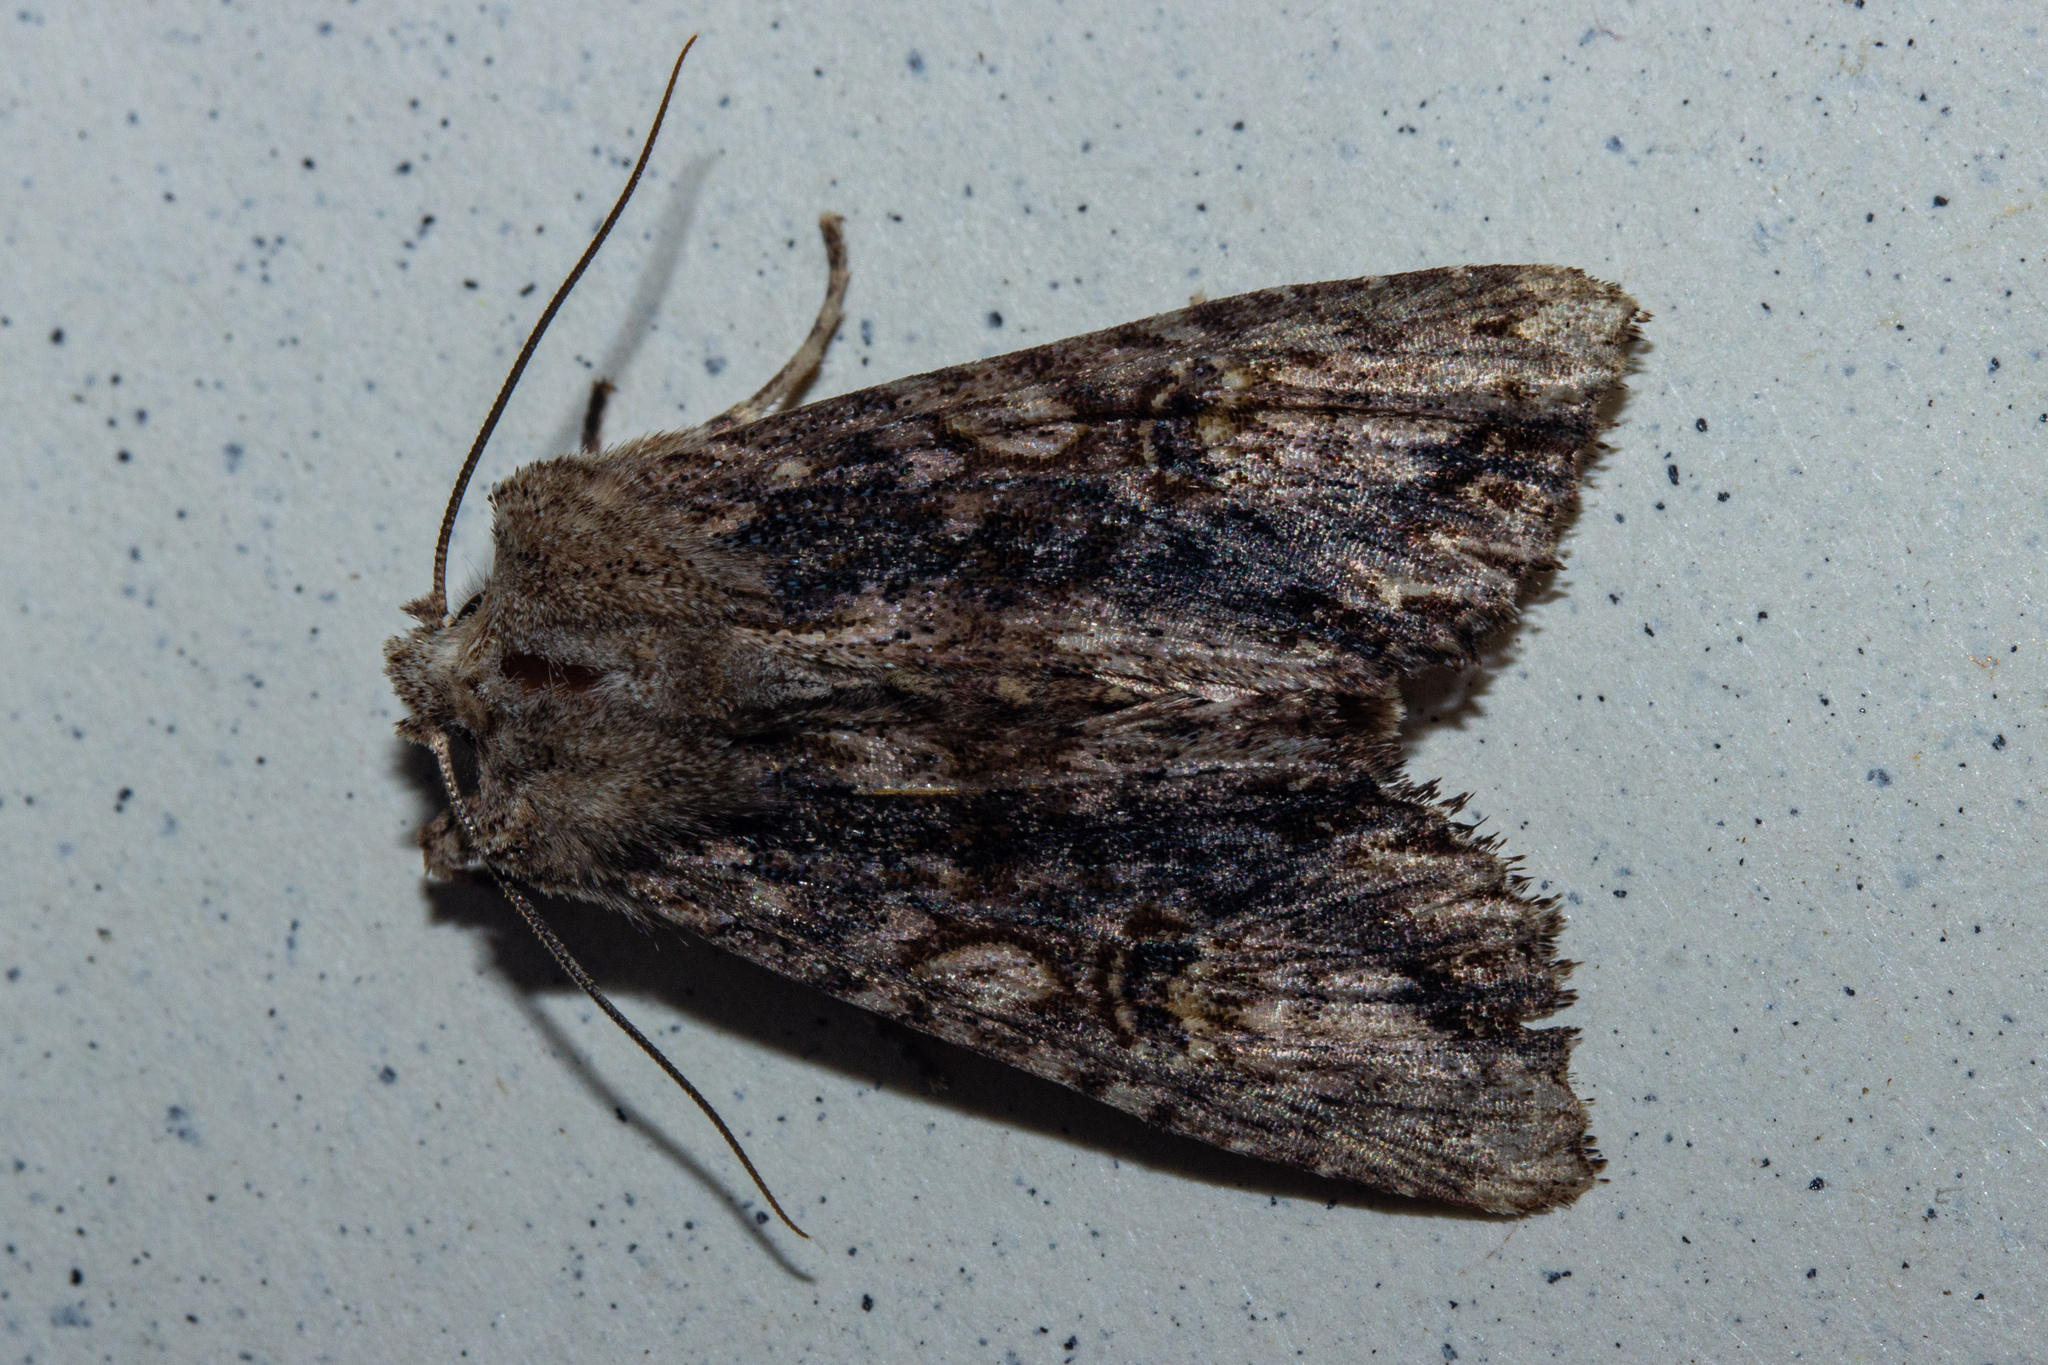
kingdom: Animalia
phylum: Arthropoda
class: Insecta
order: Lepidoptera
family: Noctuidae
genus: Meterana
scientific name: Meterana pascoei
